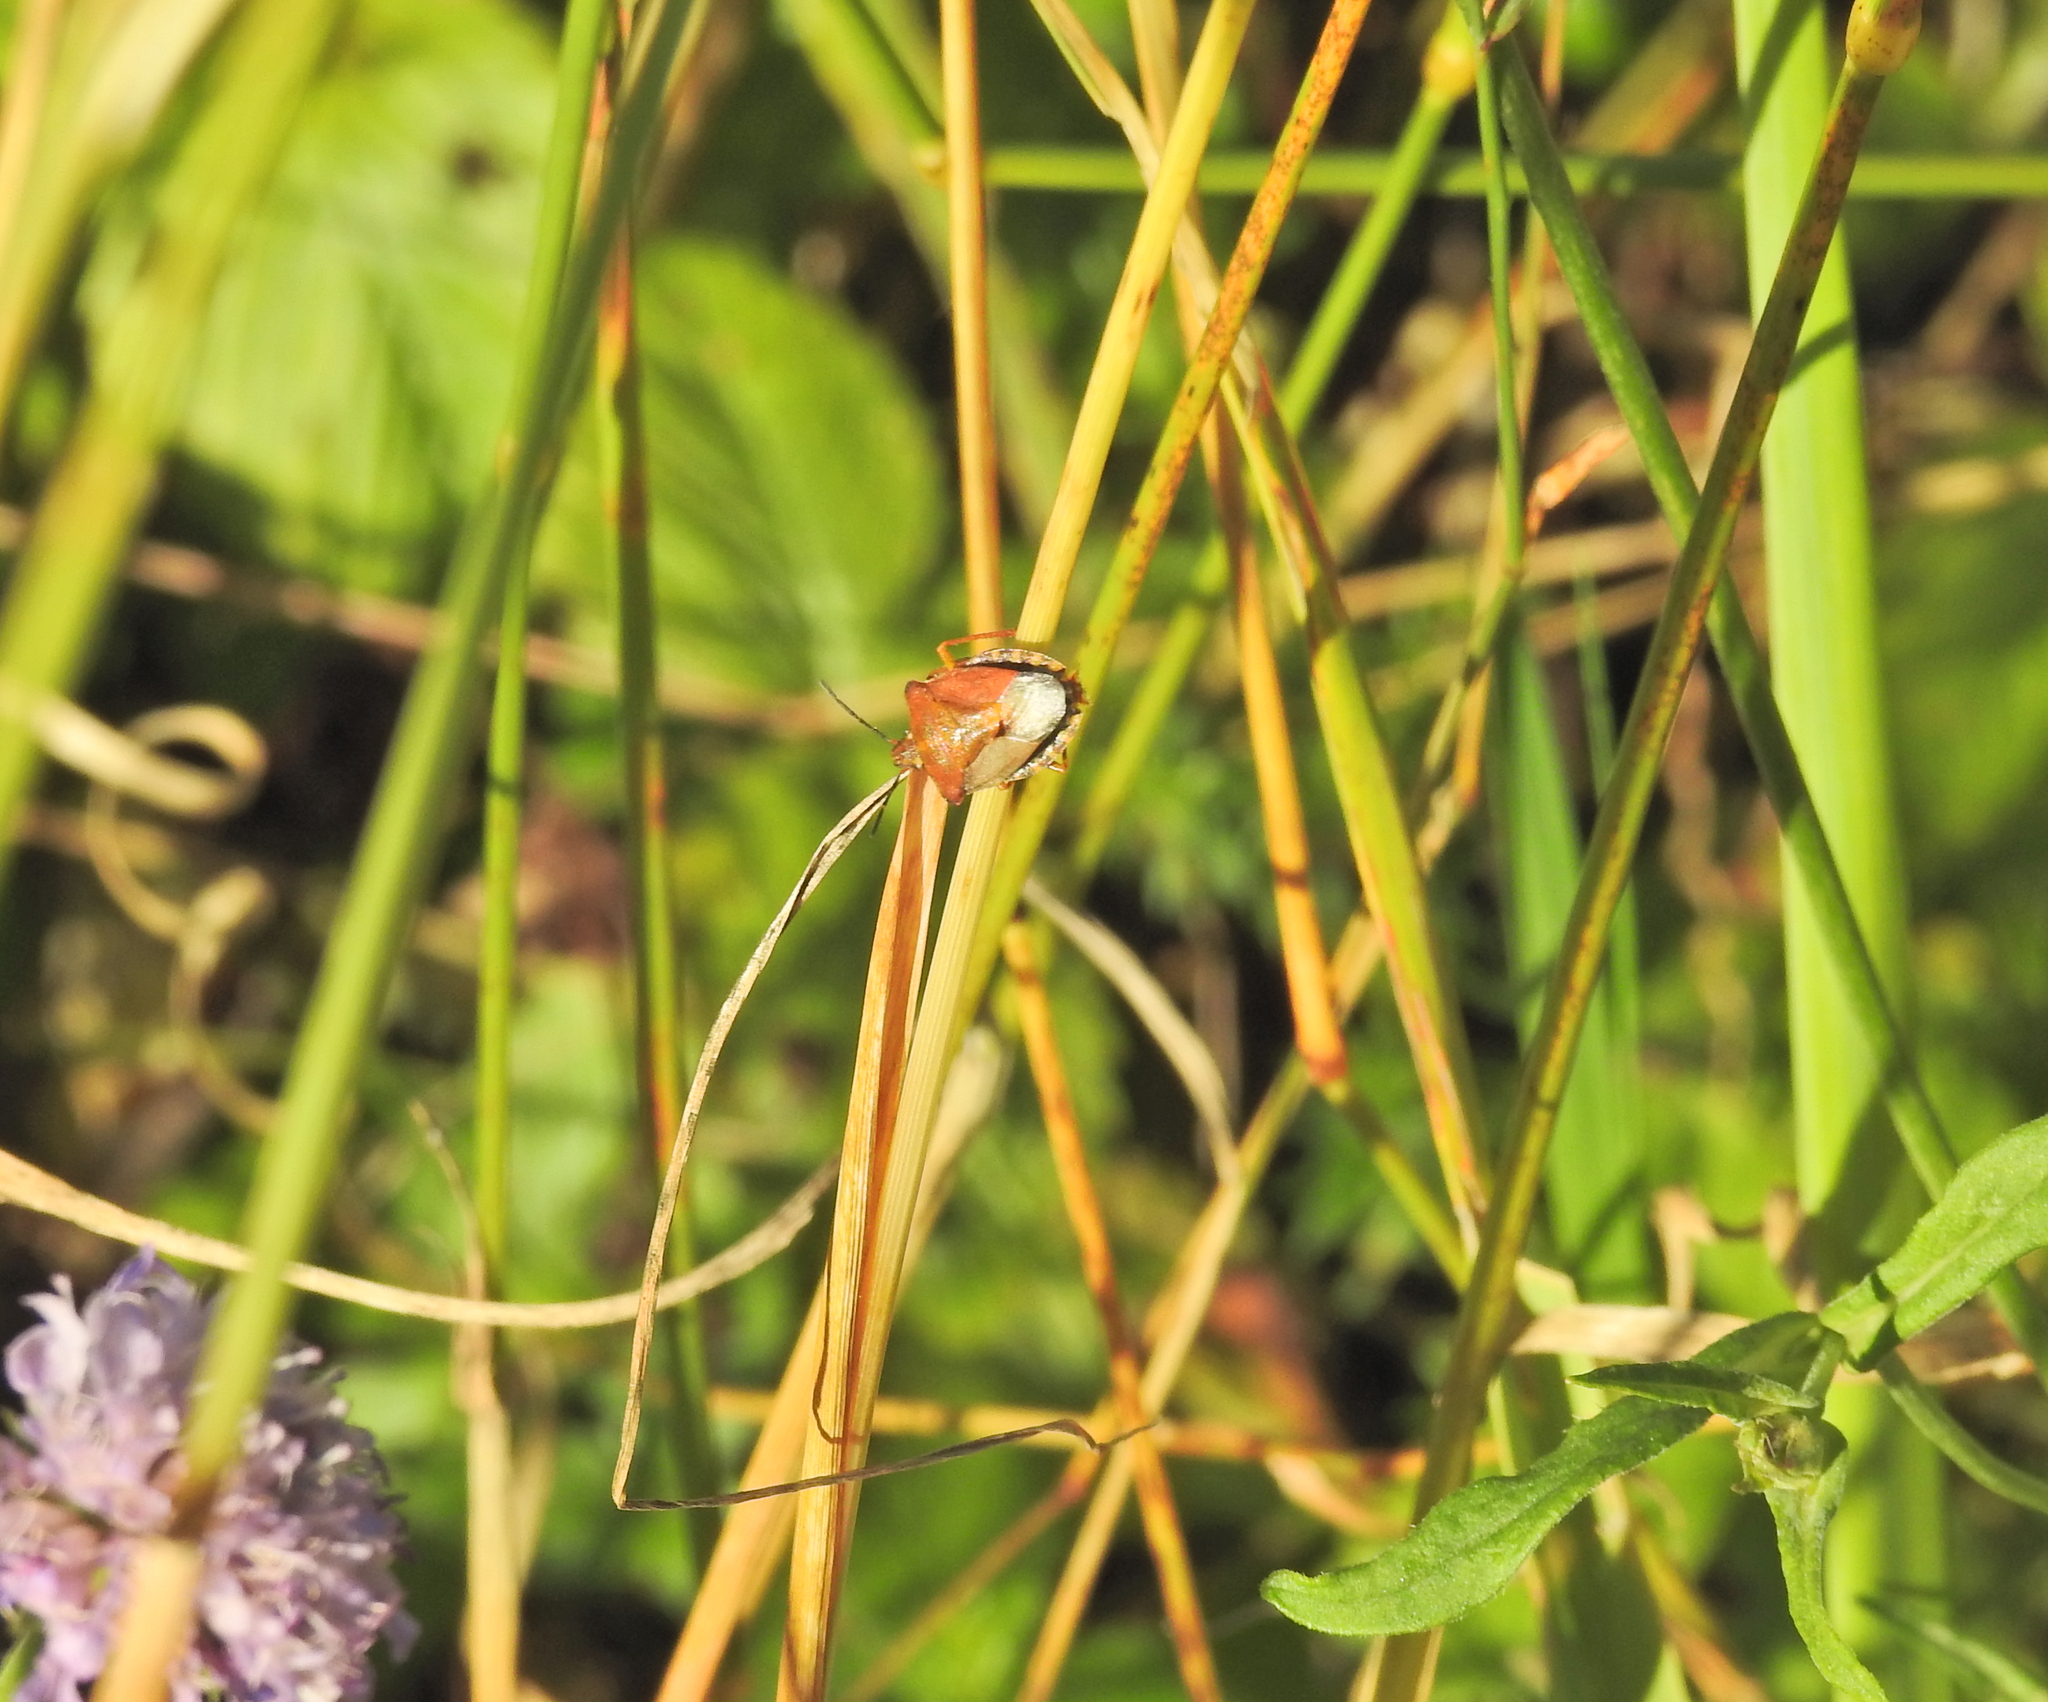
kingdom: Animalia
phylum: Arthropoda
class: Insecta
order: Hemiptera
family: Pentatomidae
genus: Carpocoris
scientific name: Carpocoris purpureipennis
